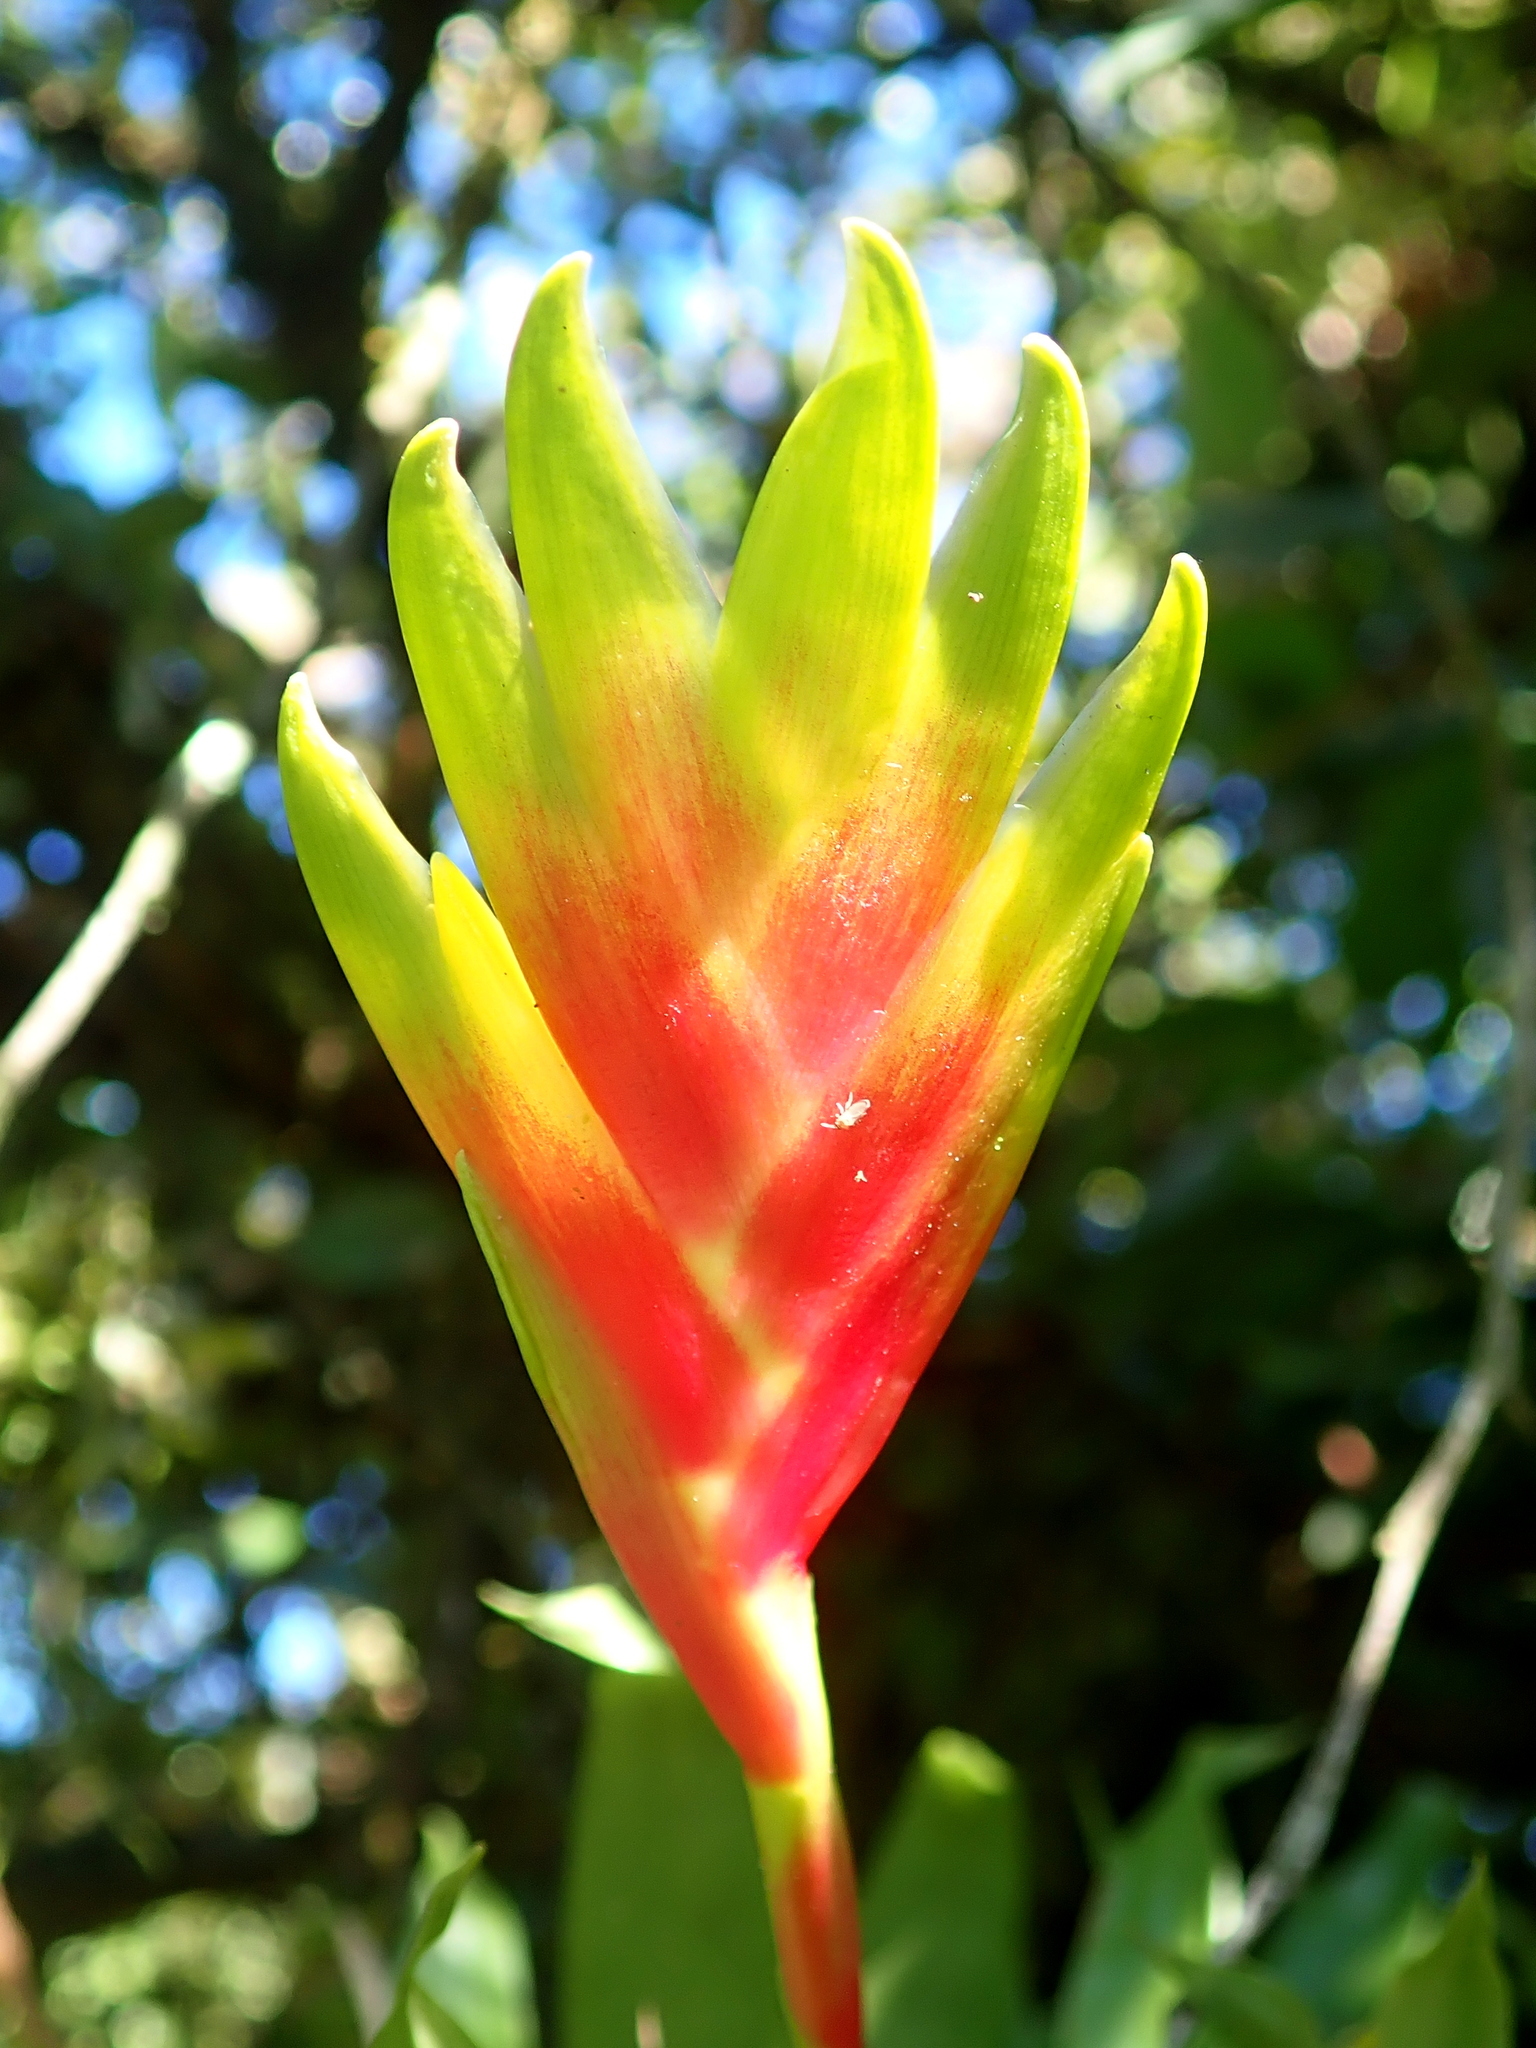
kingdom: Plantae
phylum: Tracheophyta
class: Liliopsida
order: Poales
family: Bromeliaceae
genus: Vriesea
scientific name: Vriesea carinata
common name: Lobster-claws
